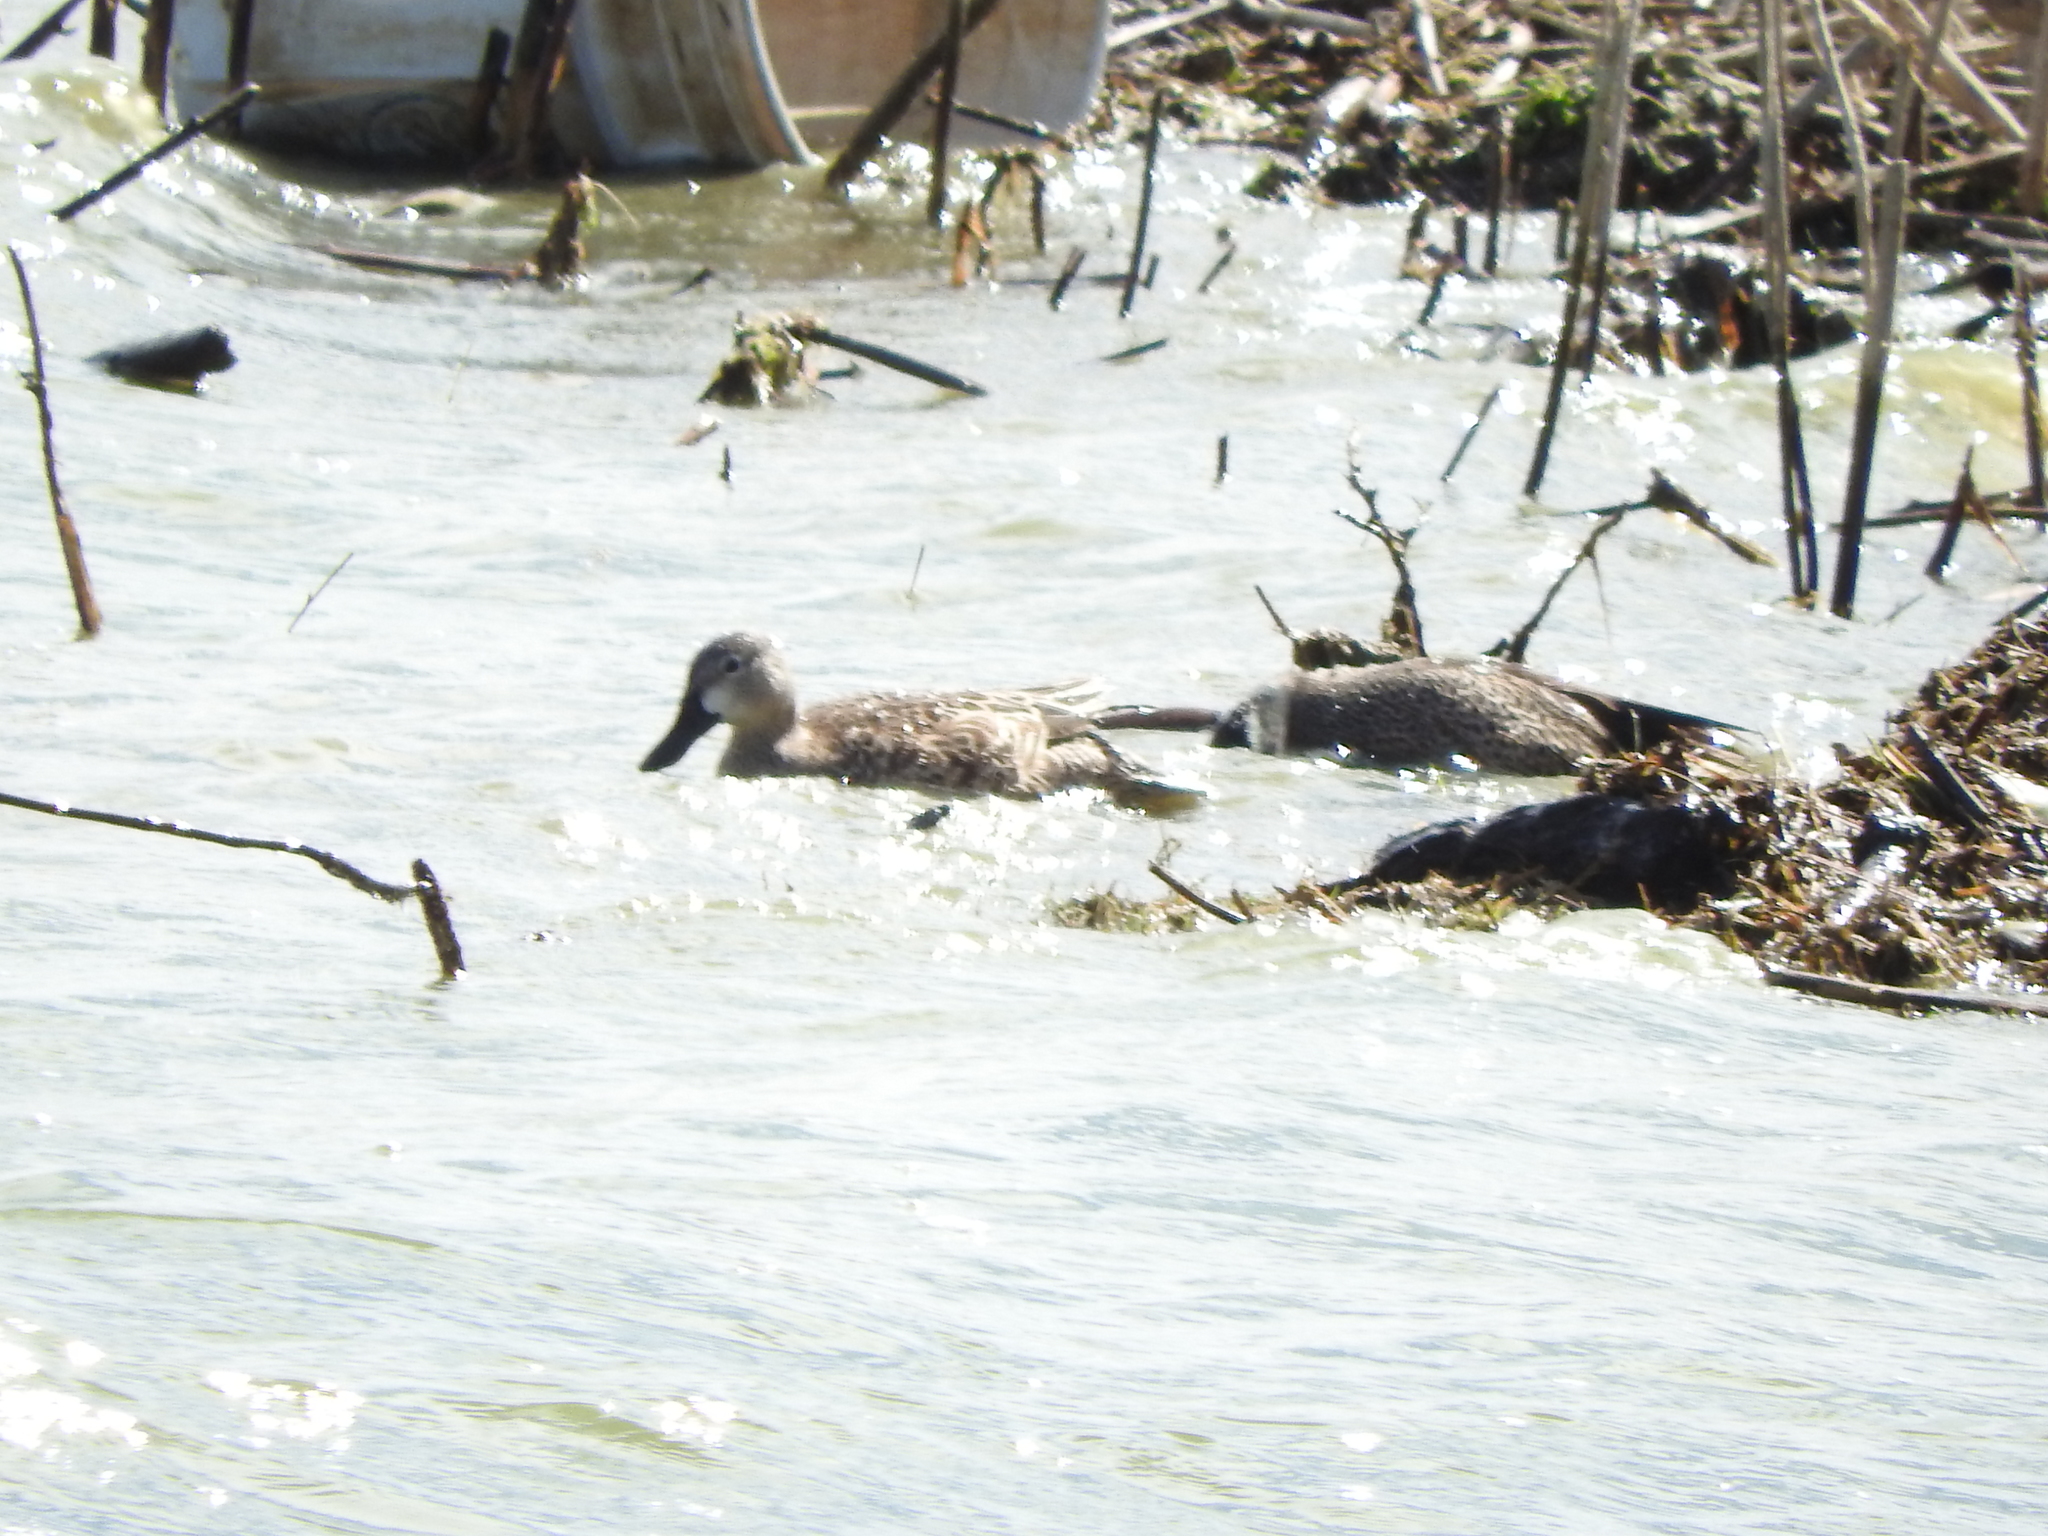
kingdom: Animalia
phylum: Chordata
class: Aves
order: Anseriformes
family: Anatidae
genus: Spatula
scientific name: Spatula discors
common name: Blue-winged teal
